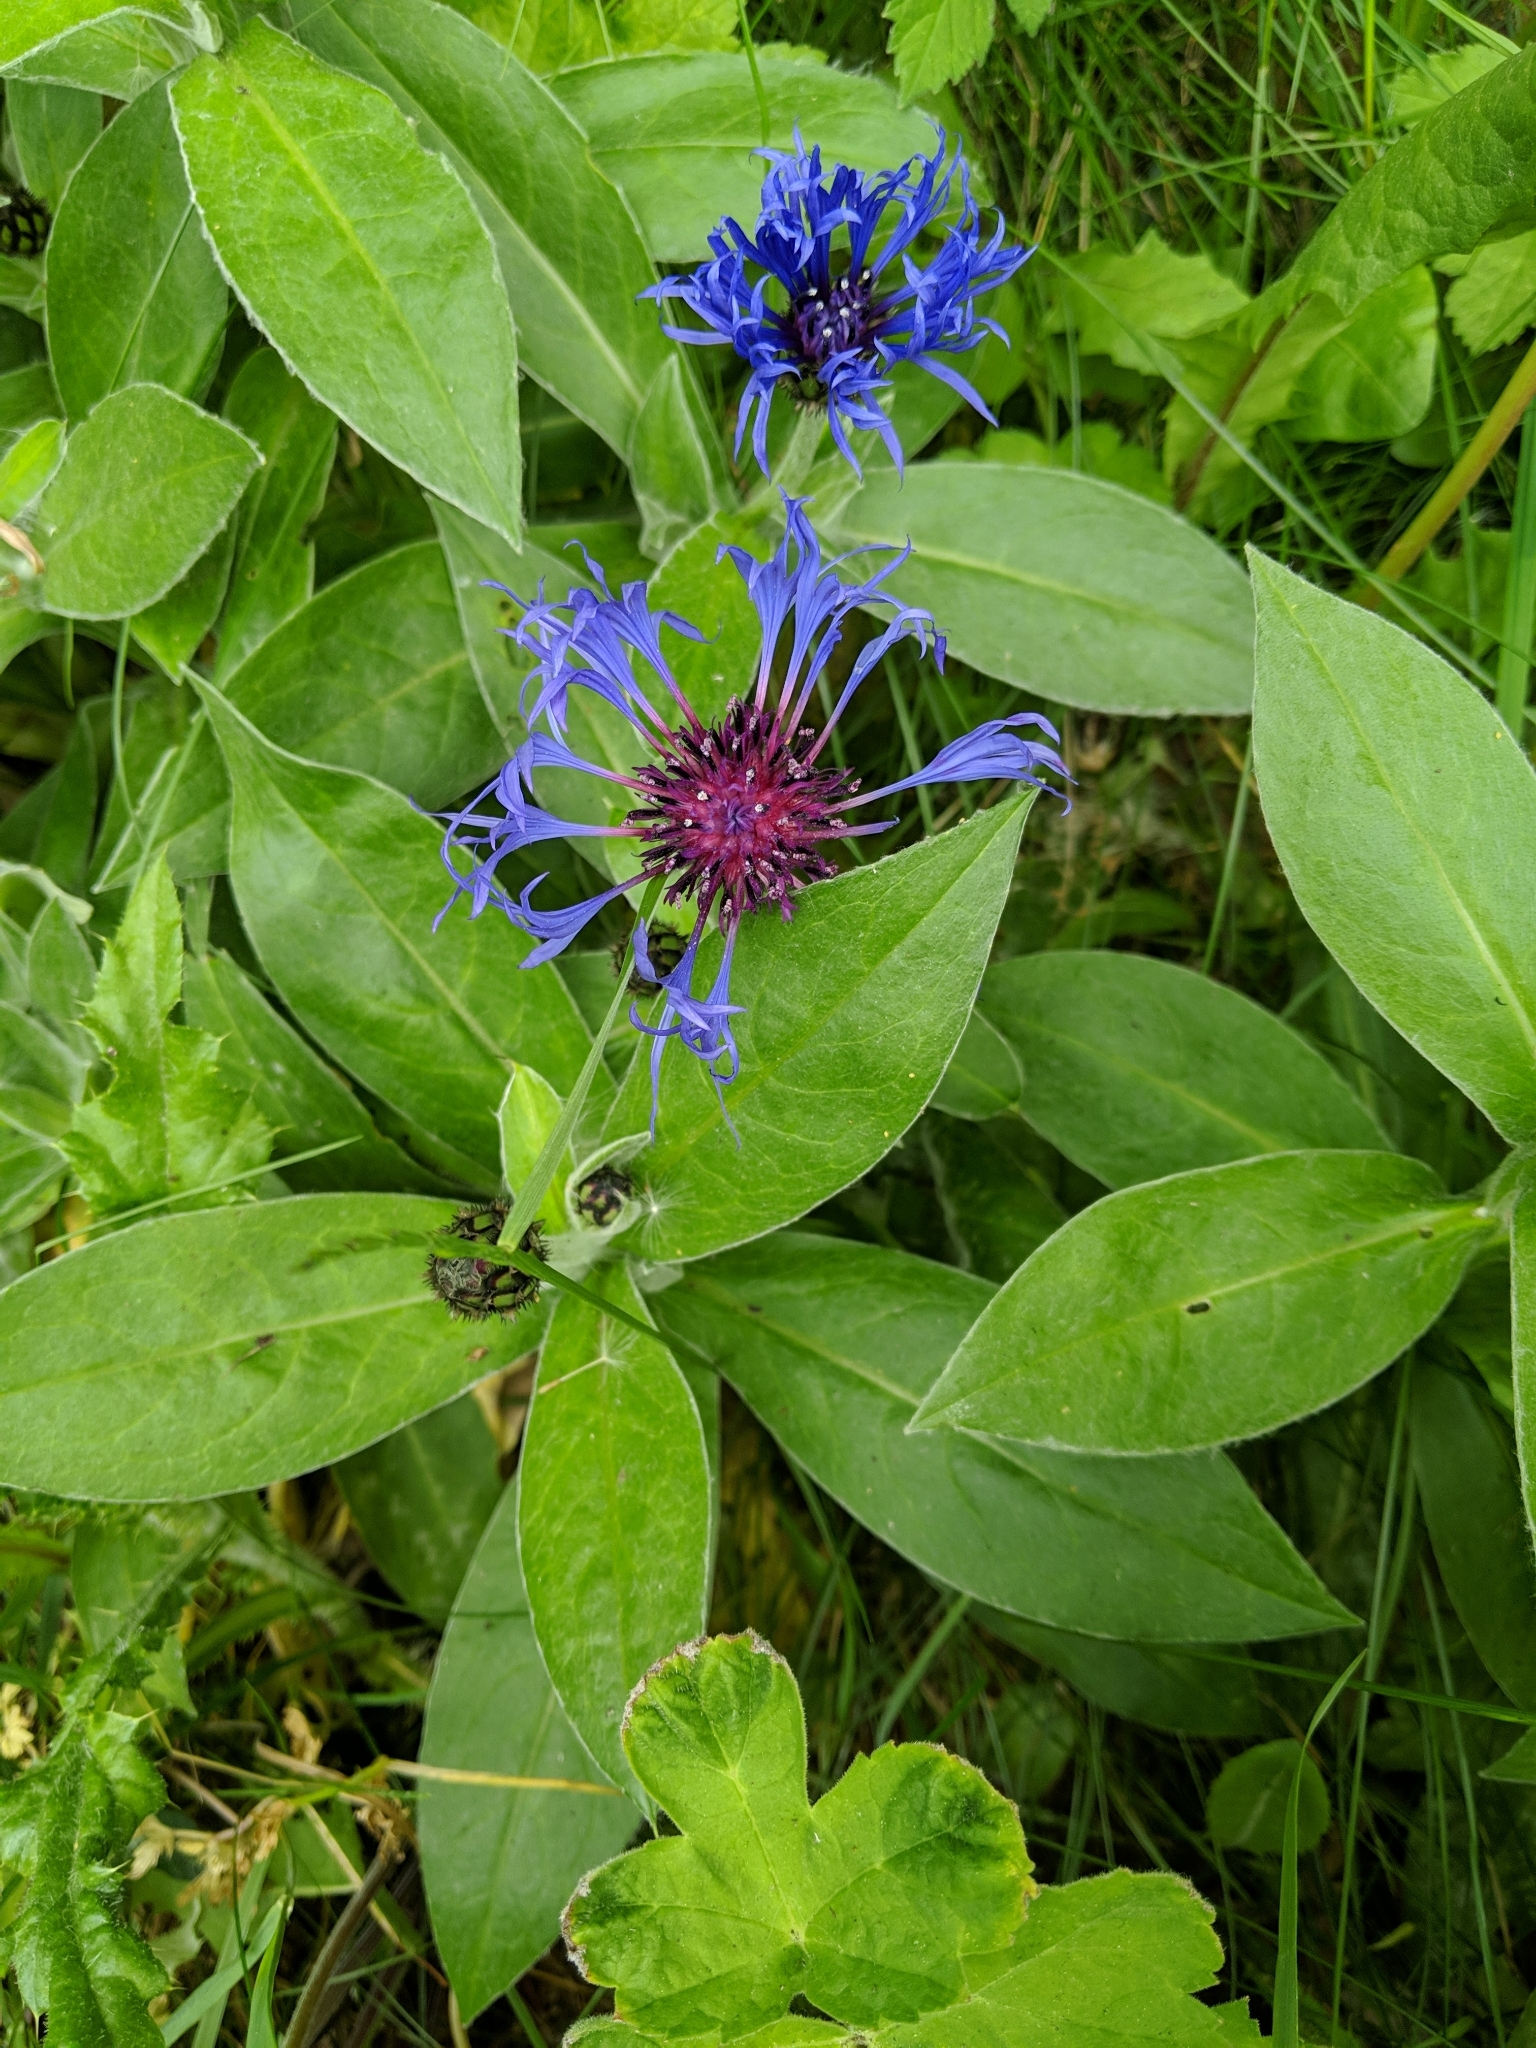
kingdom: Plantae
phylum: Tracheophyta
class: Magnoliopsida
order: Asterales
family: Asteraceae
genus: Centaurea
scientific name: Centaurea montana
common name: Perennial cornflower
